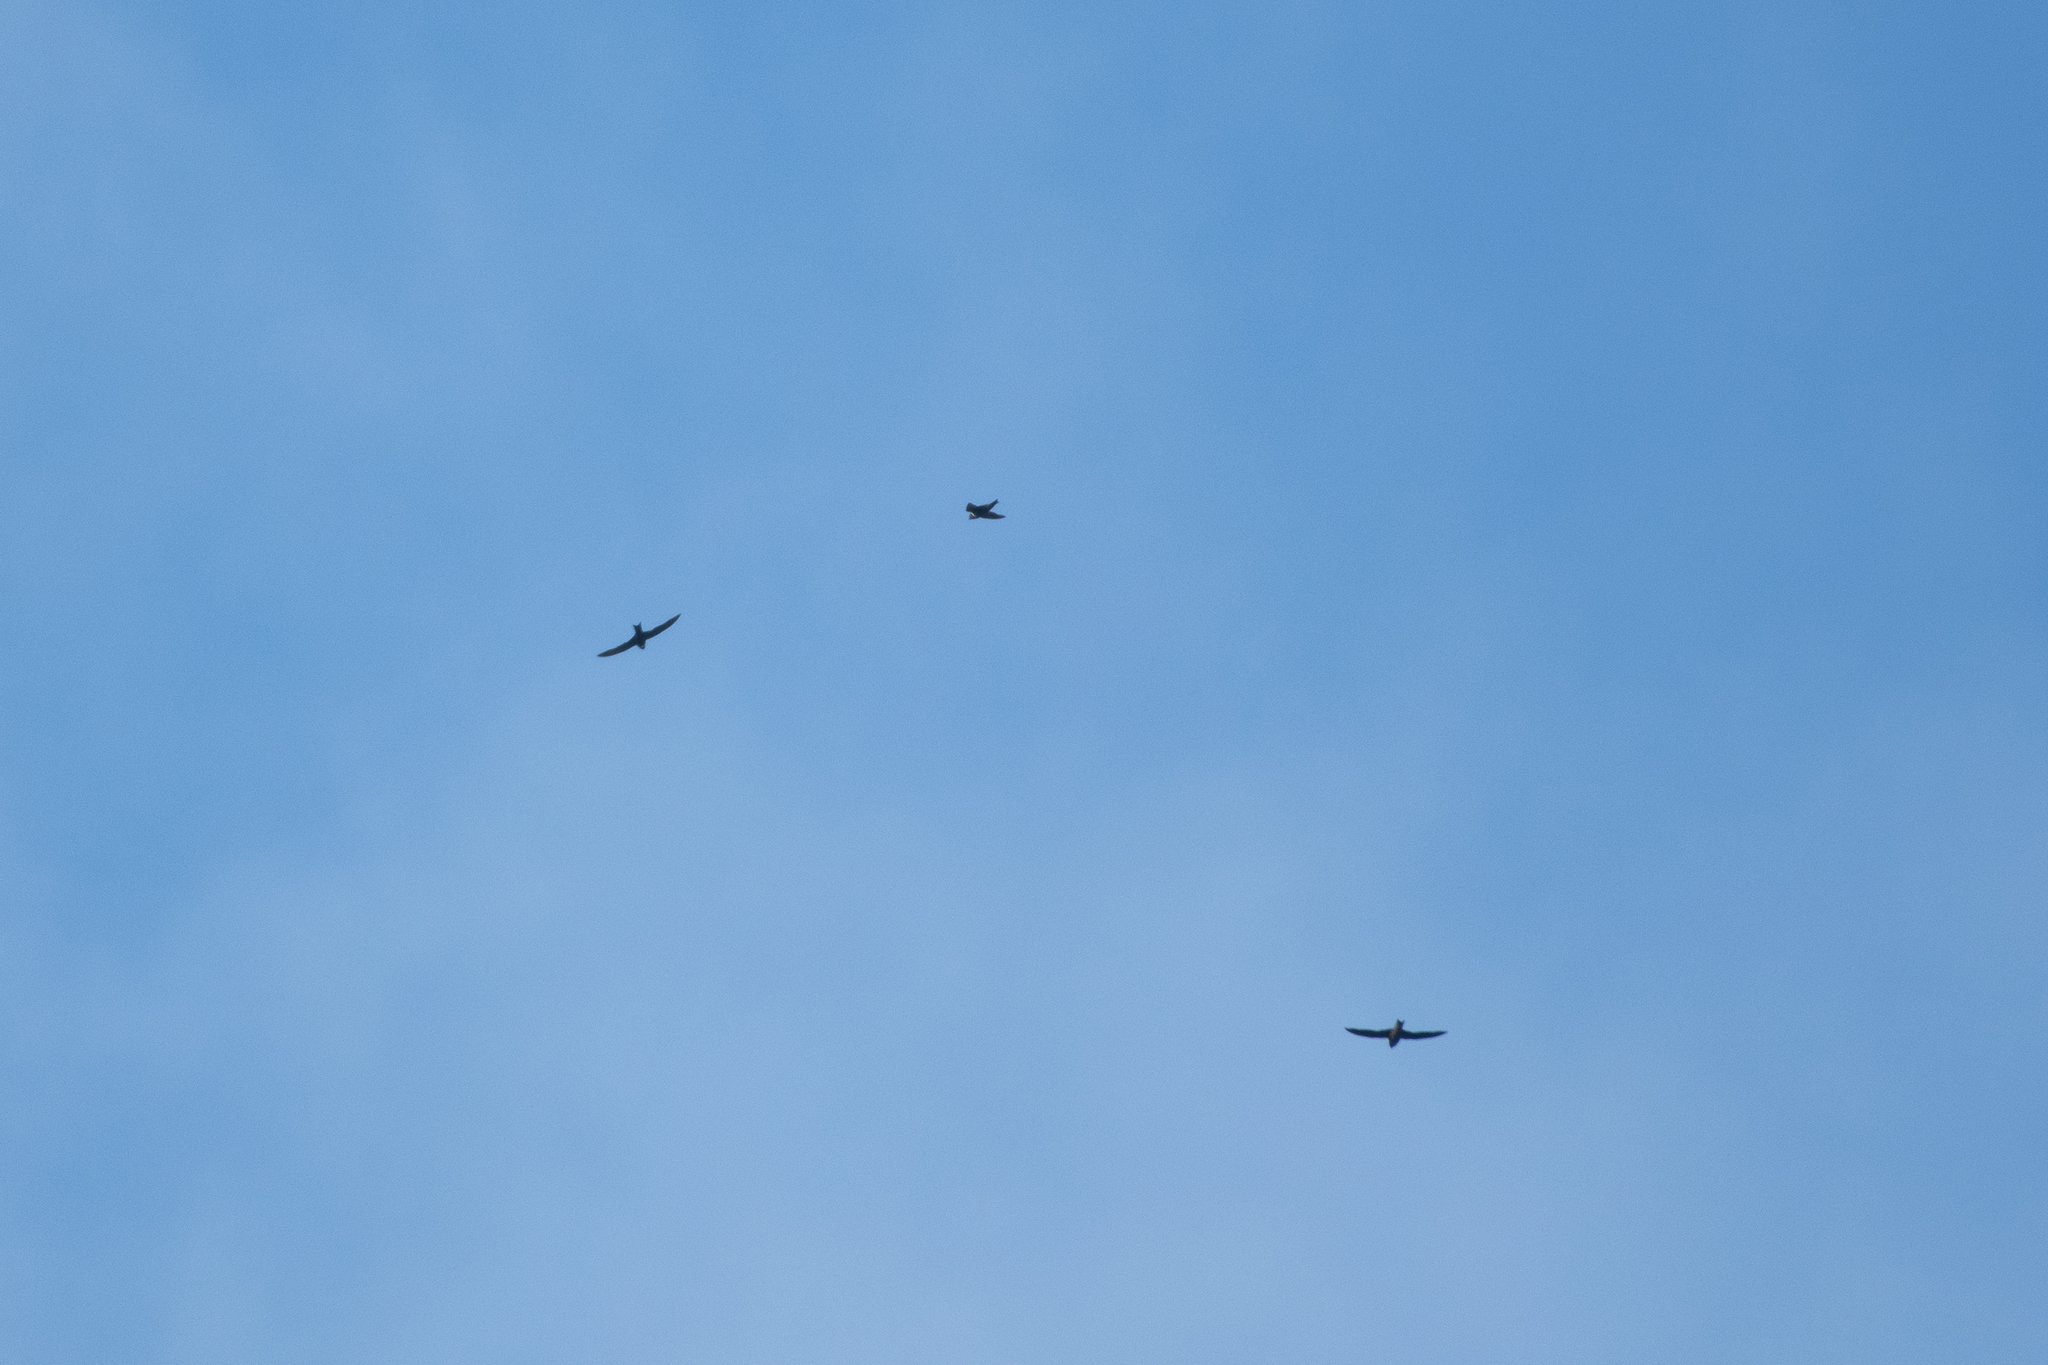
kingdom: Animalia
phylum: Chordata
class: Aves
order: Apodiformes
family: Apodidae
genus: Streptoprocne
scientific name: Streptoprocne zonaris
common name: White-collared swift
